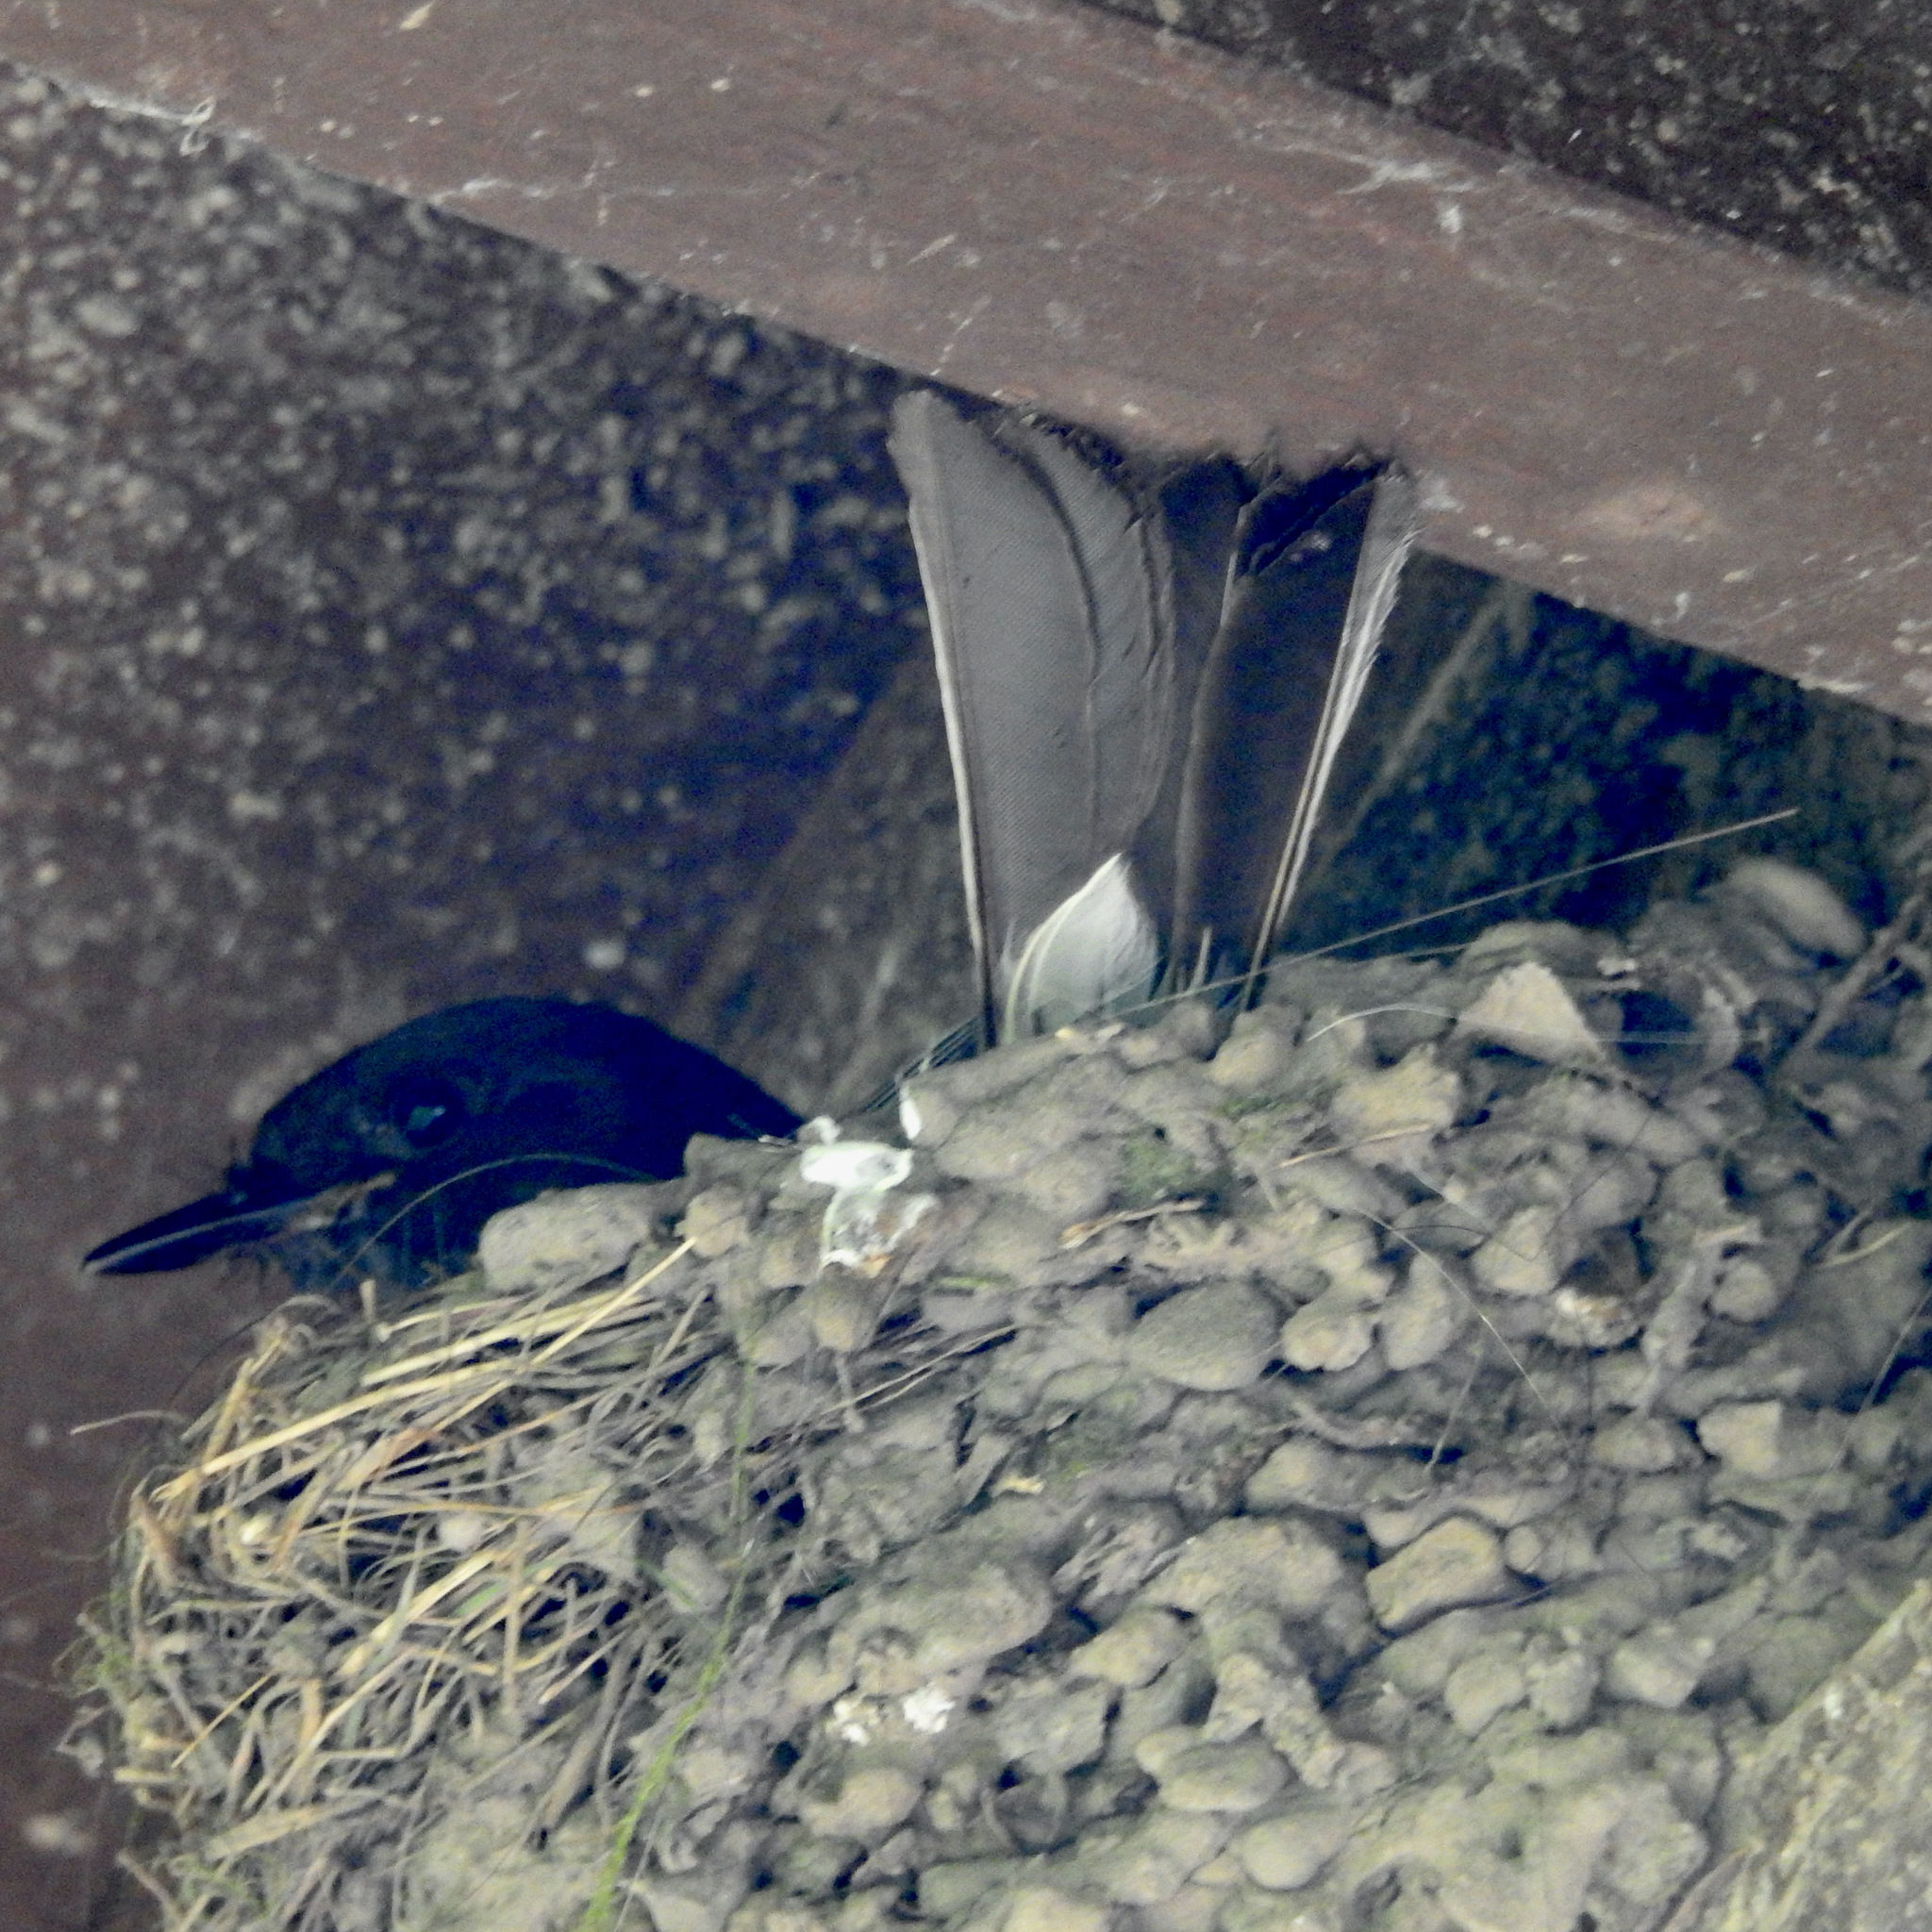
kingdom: Animalia
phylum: Chordata
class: Aves
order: Passeriformes
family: Tyrannidae
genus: Sayornis
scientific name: Sayornis nigricans
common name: Black phoebe
